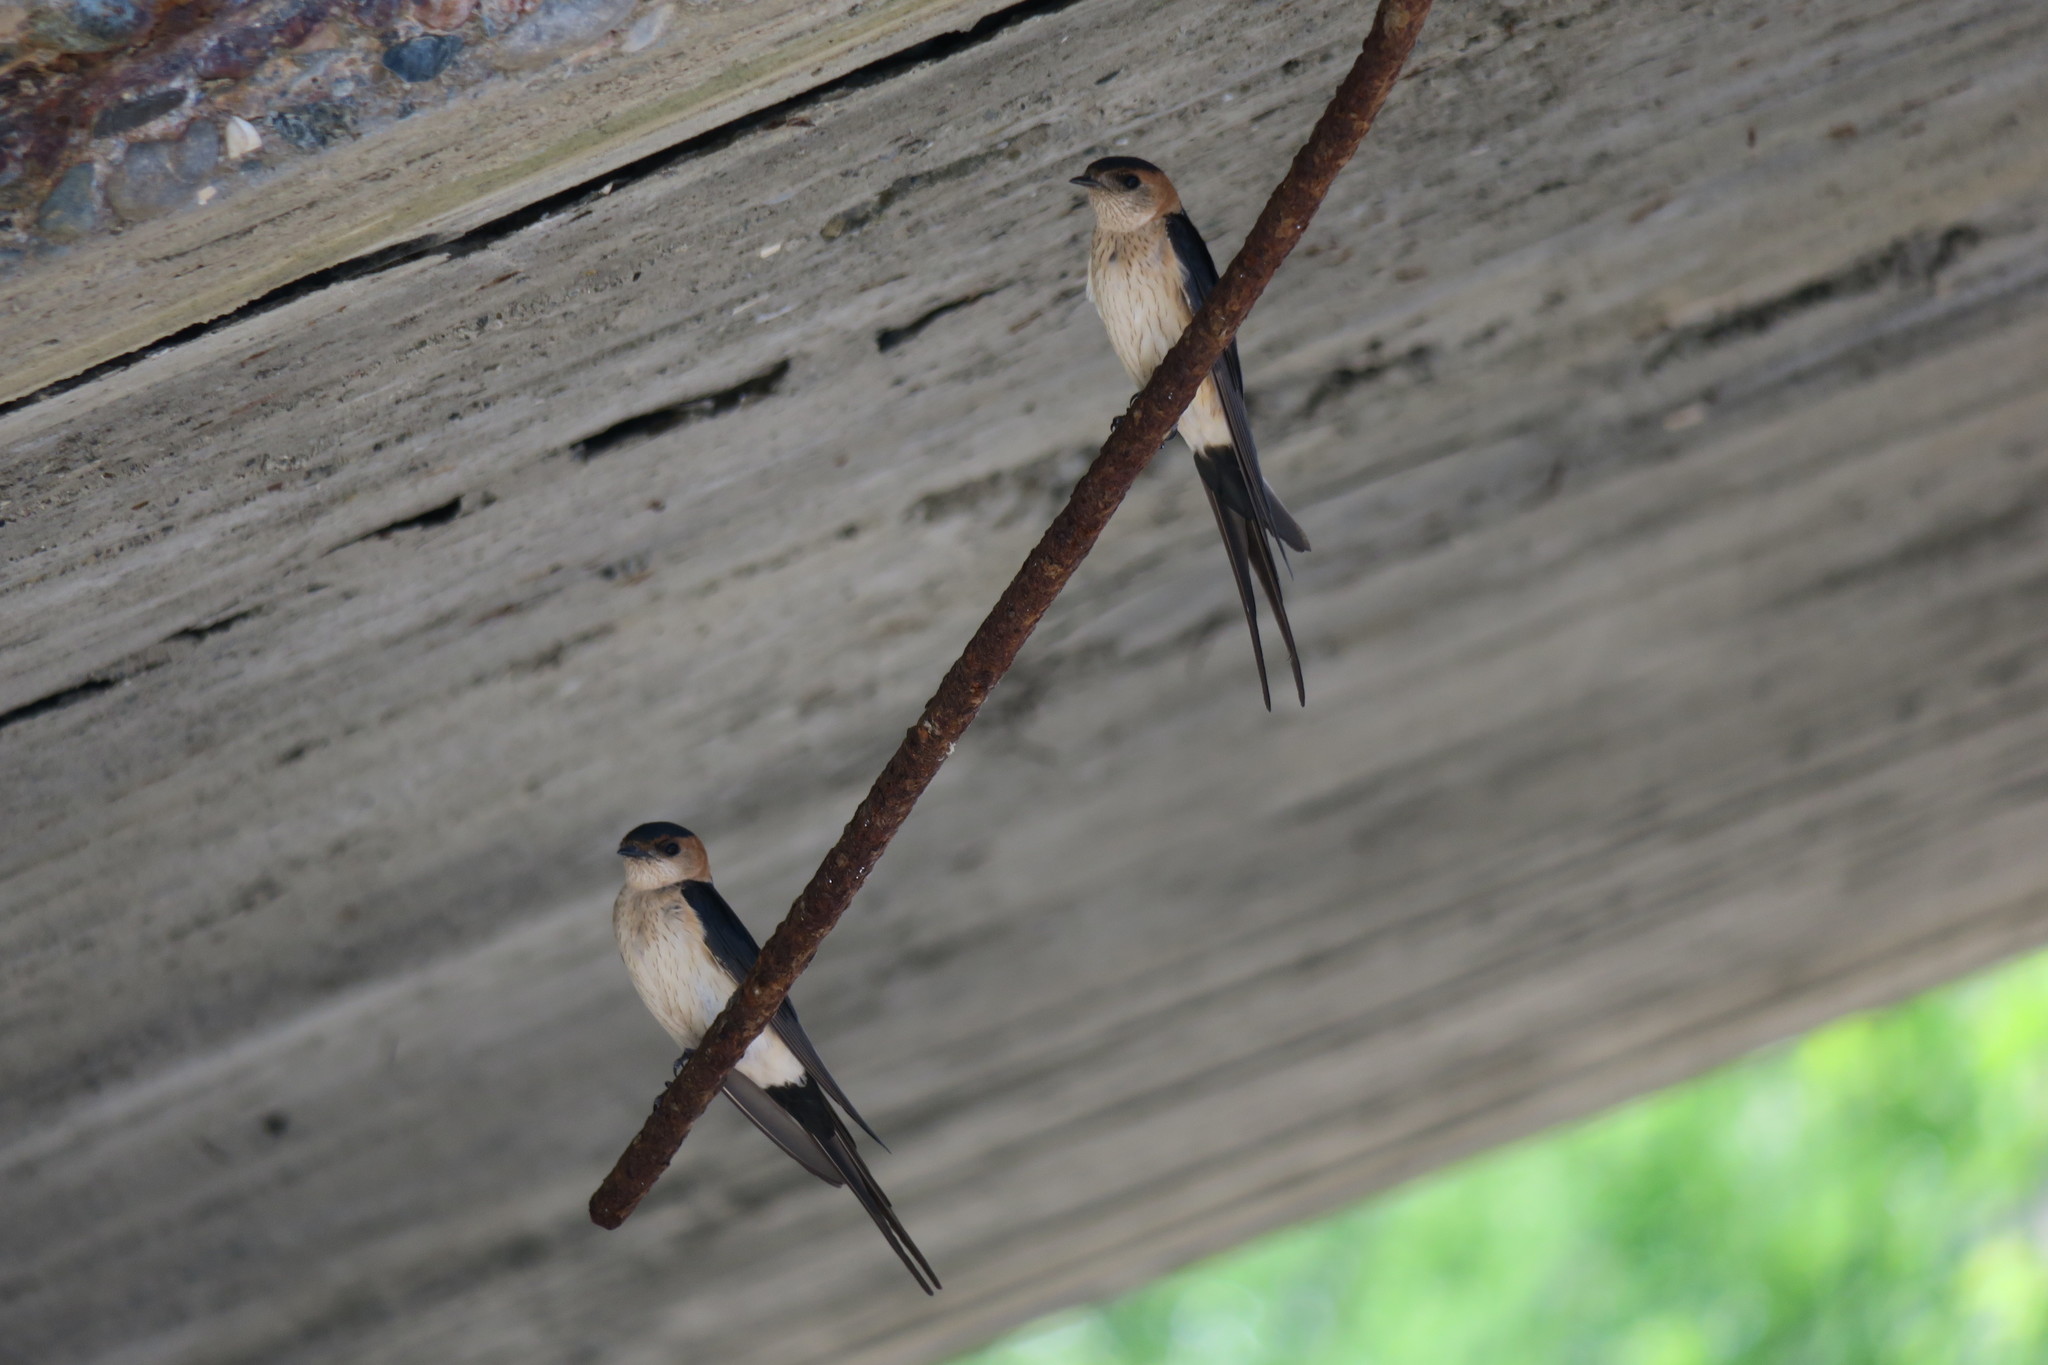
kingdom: Animalia
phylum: Chordata
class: Aves
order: Passeriformes
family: Hirundinidae
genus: Cecropis
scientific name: Cecropis daurica
